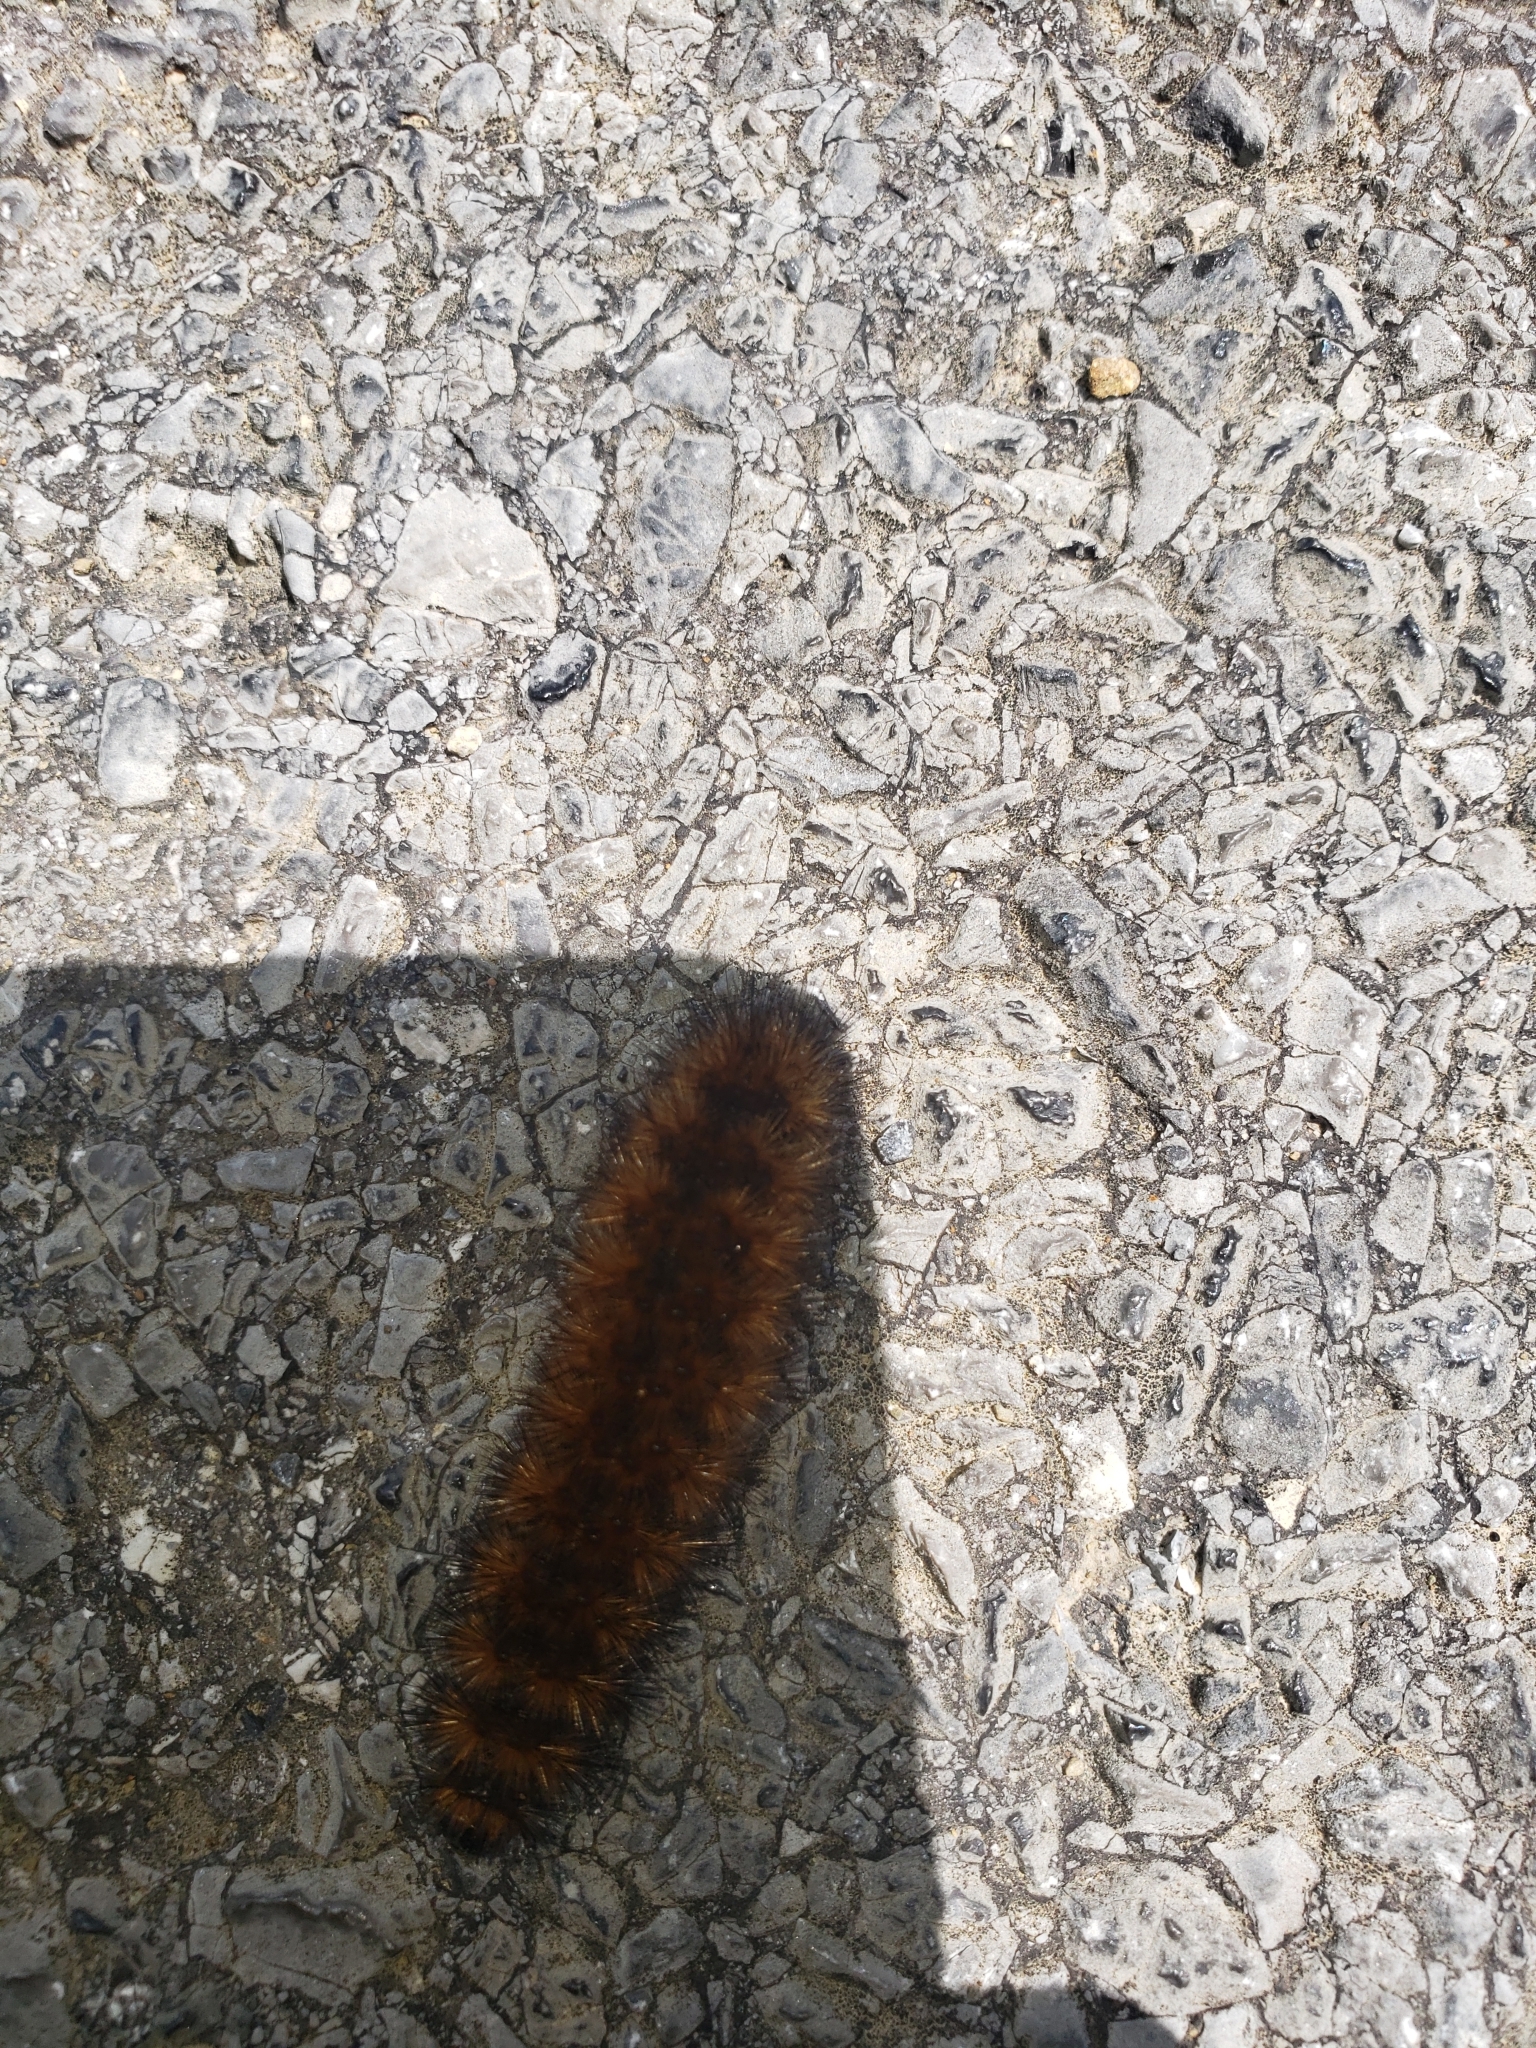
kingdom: Animalia
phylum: Arthropoda
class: Insecta
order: Lepidoptera
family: Erebidae
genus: Pyrrharctia
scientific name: Pyrrharctia isabella
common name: Isabella tiger moth
